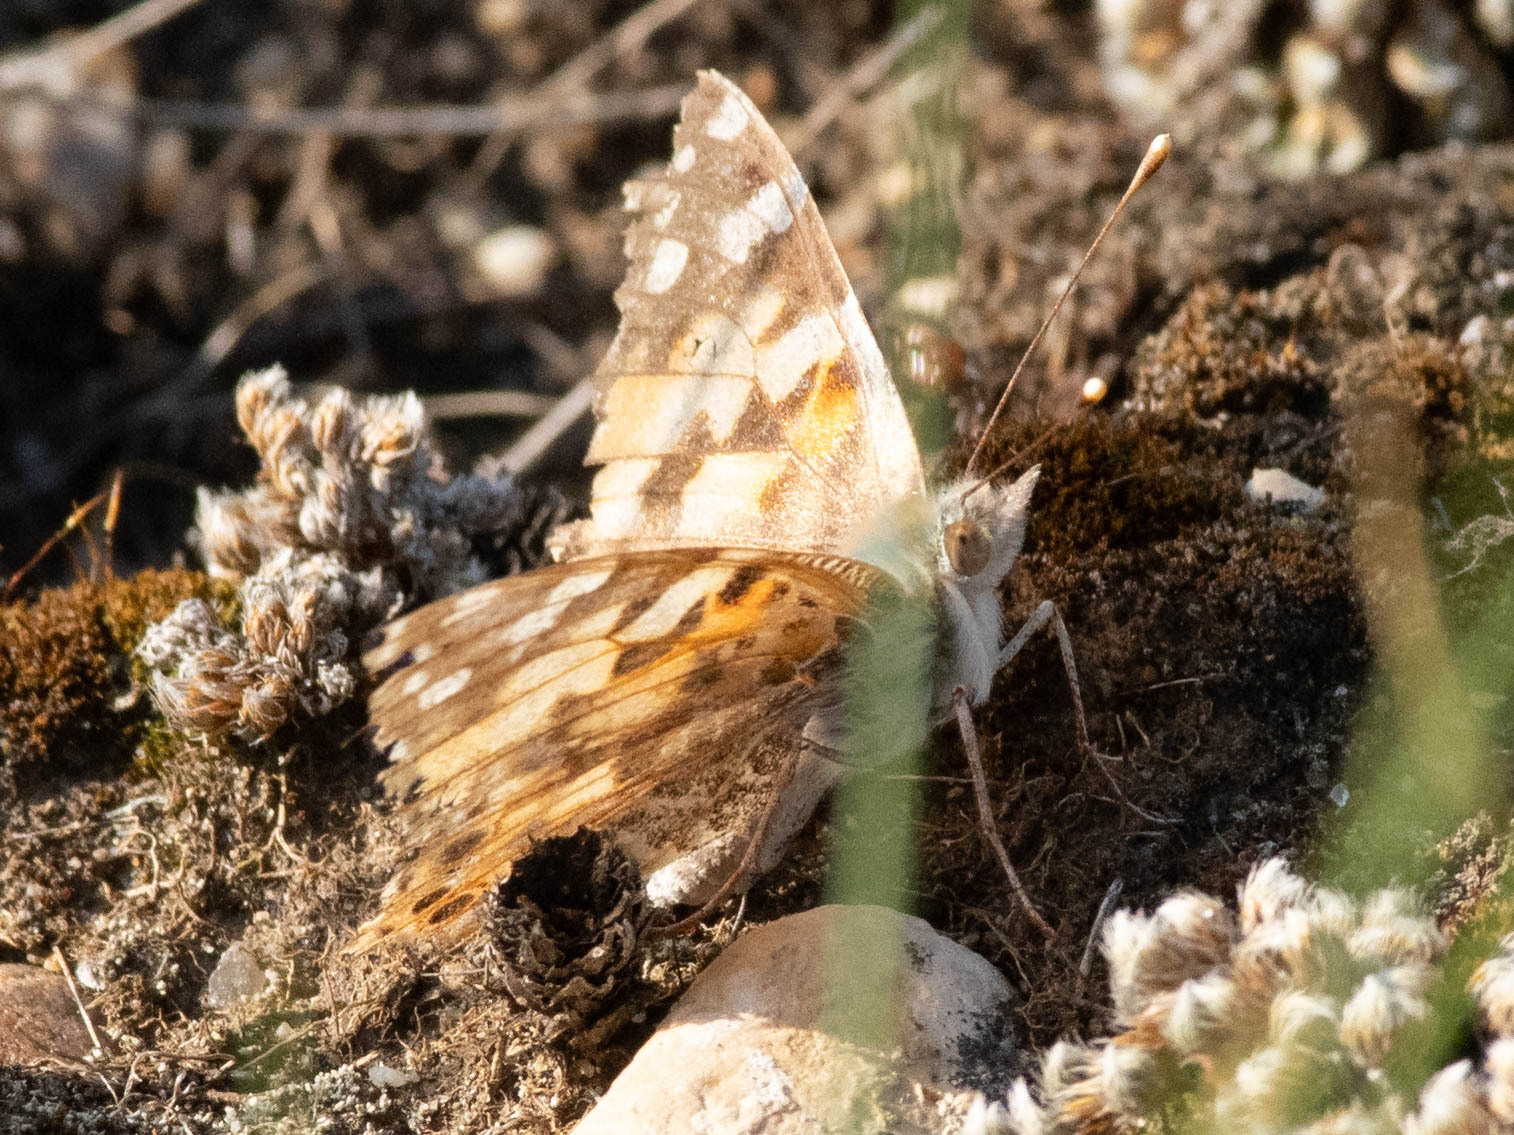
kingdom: Animalia
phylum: Arthropoda
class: Insecta
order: Lepidoptera
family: Nymphalidae
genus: Vanessa
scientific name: Vanessa cardui
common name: Painted lady
